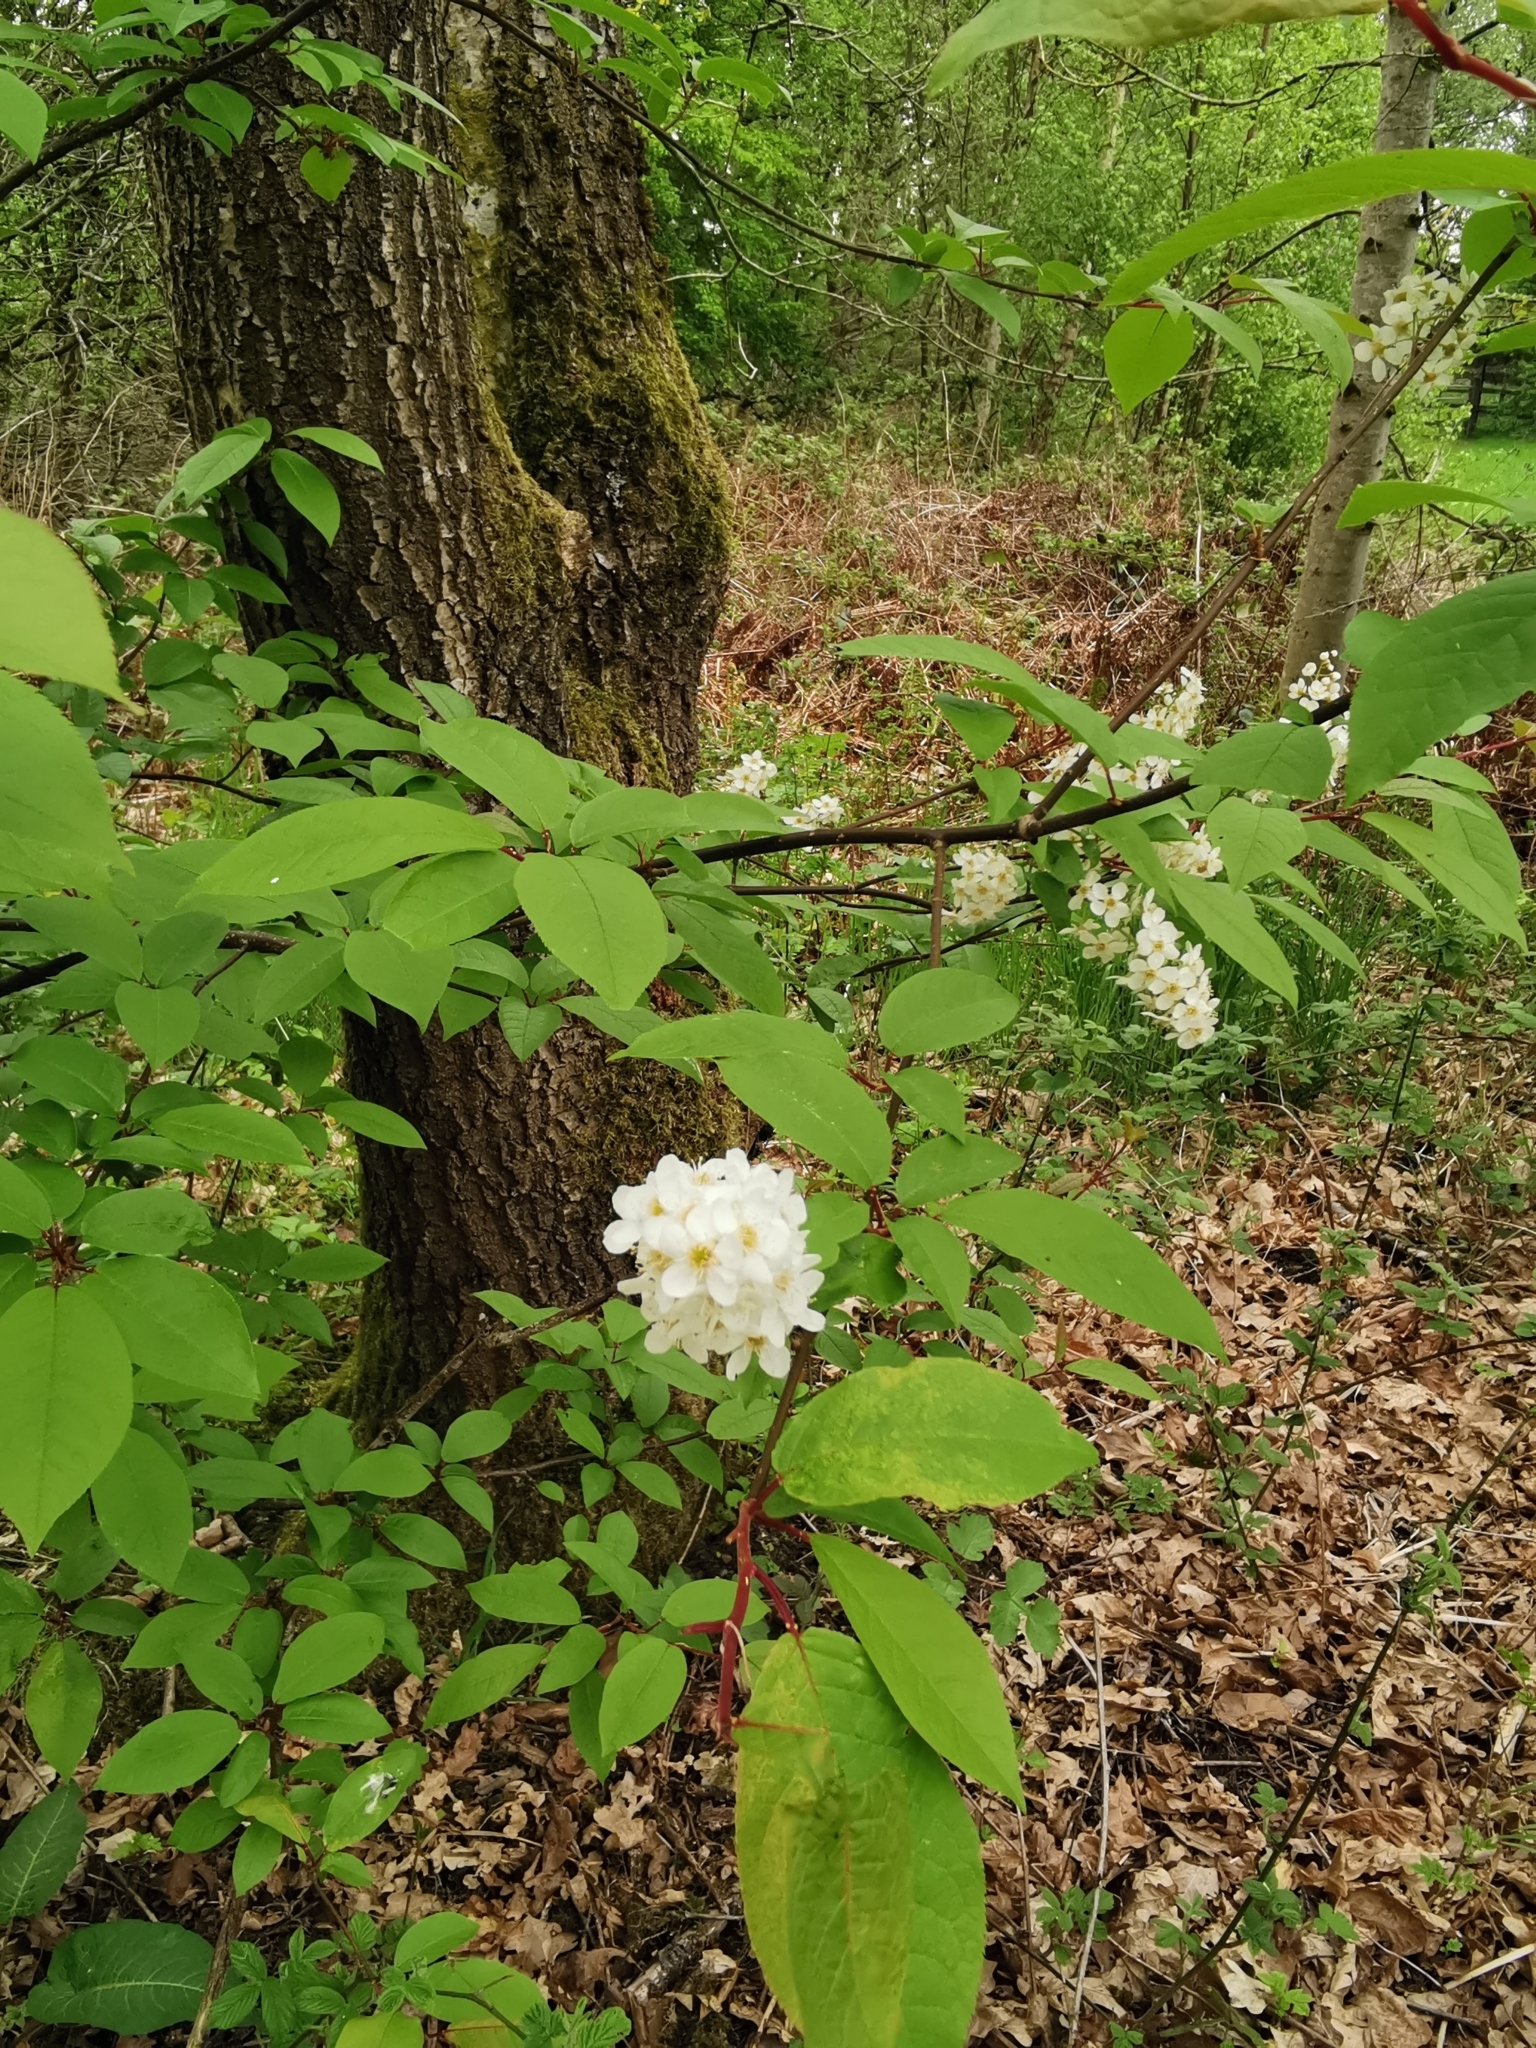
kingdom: Plantae
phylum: Tracheophyta
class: Magnoliopsida
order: Rosales
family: Rosaceae
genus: Prunus
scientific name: Prunus padus
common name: Bird cherry
